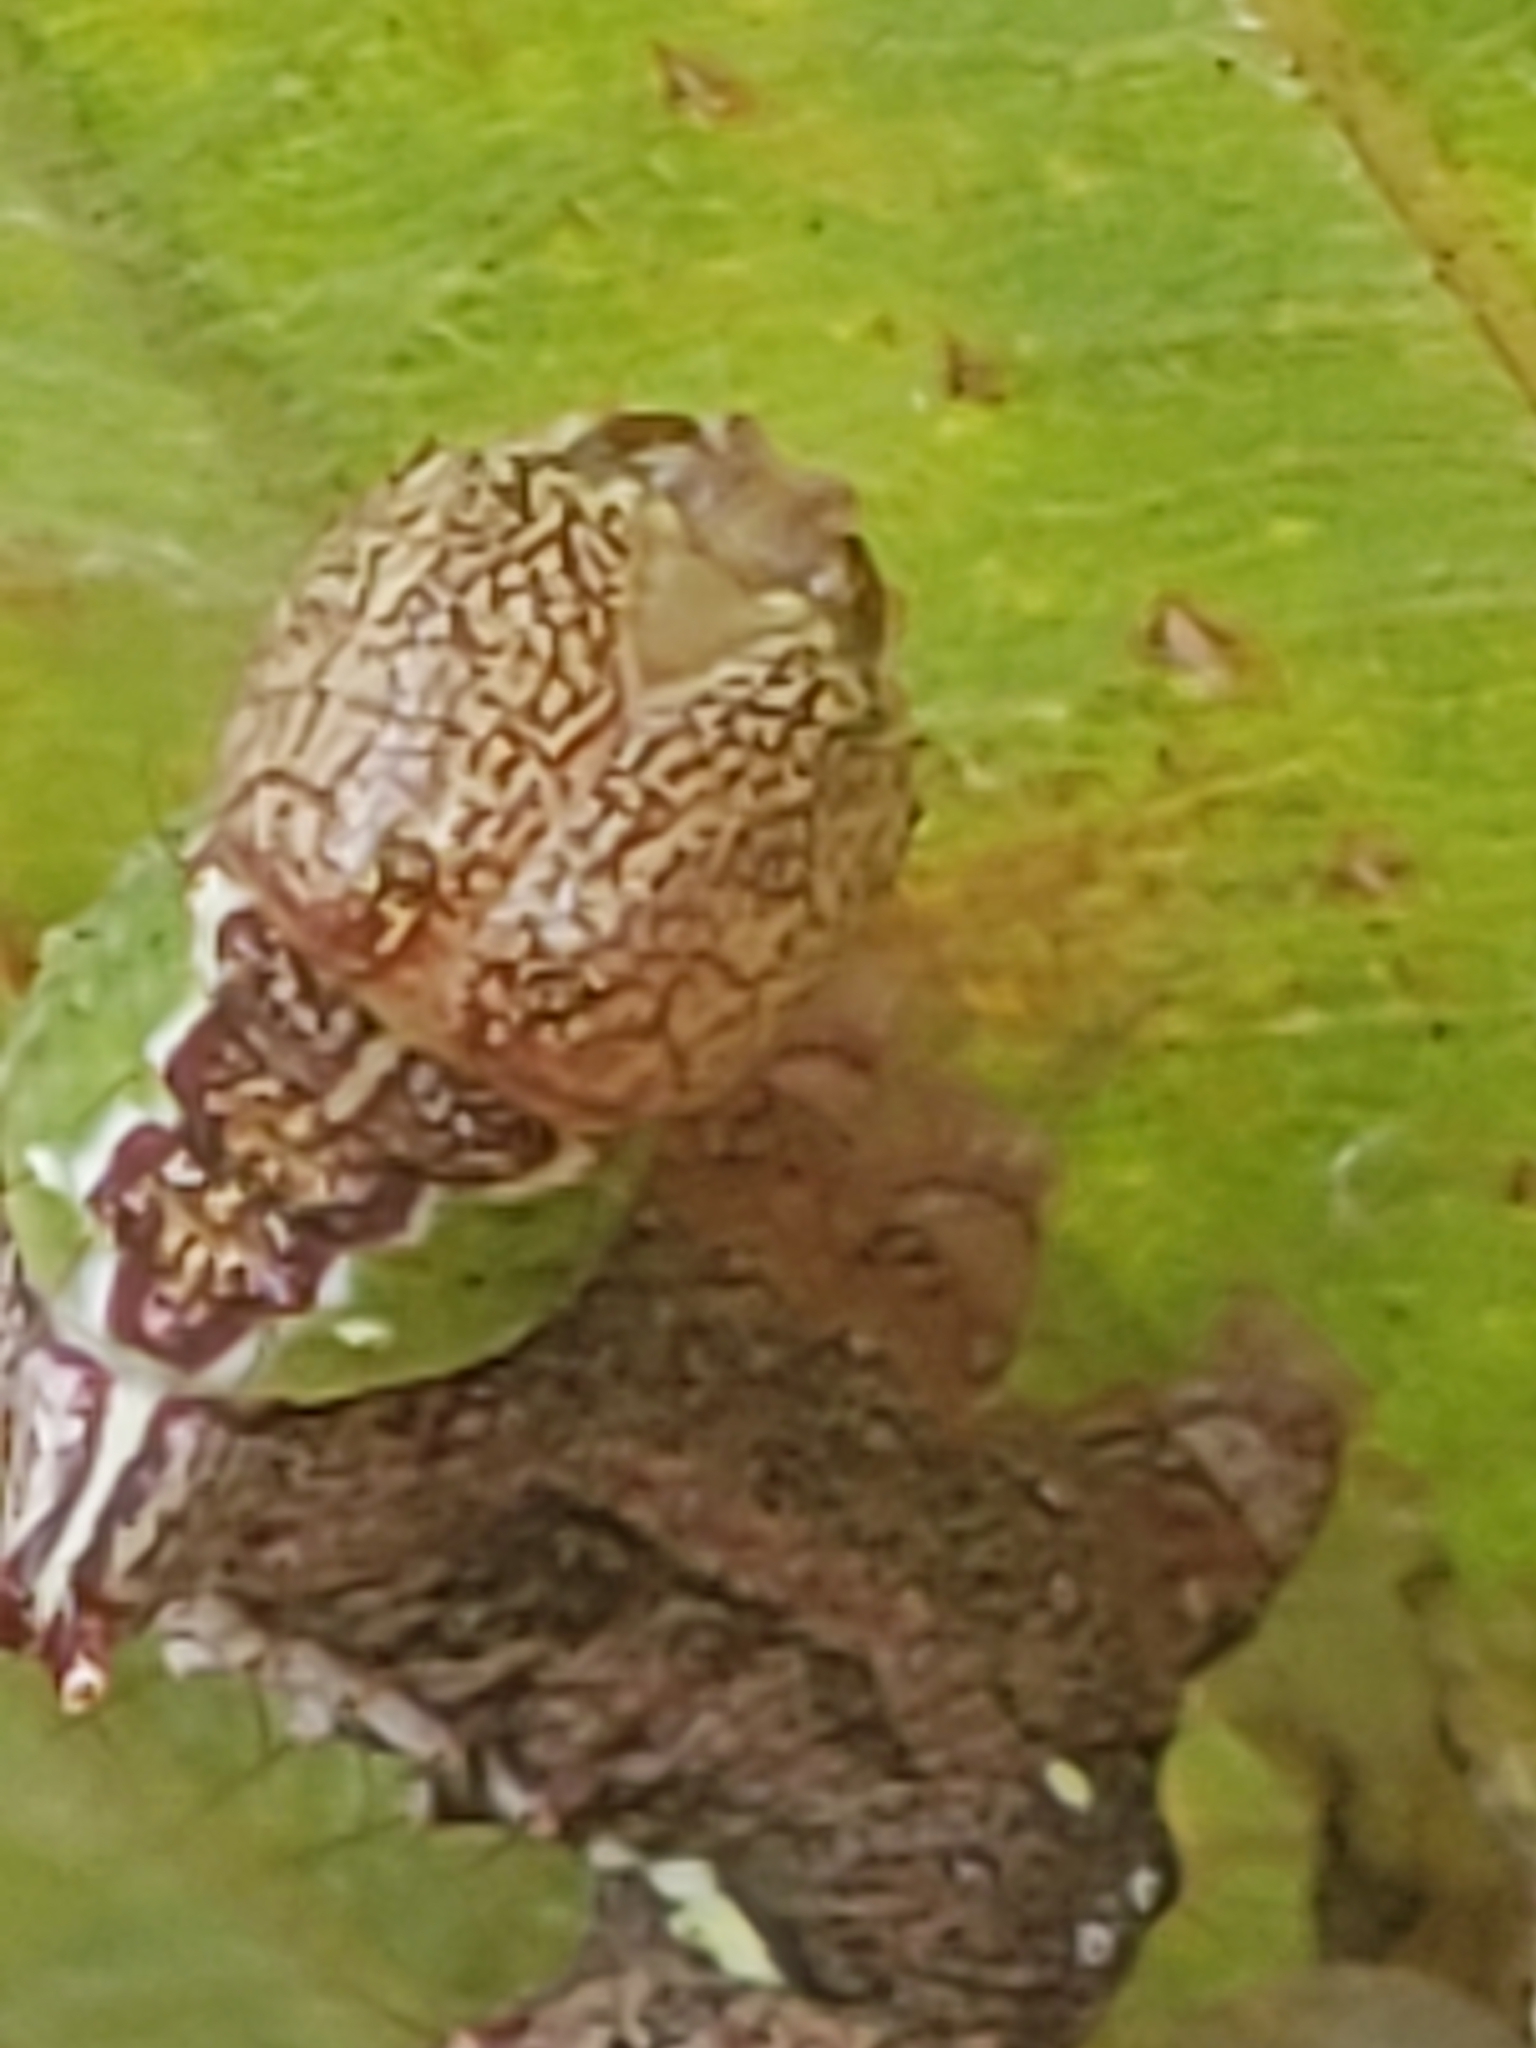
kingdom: Animalia
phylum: Arthropoda
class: Insecta
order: Lepidoptera
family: Notodontidae
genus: Schizura
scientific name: Schizura
